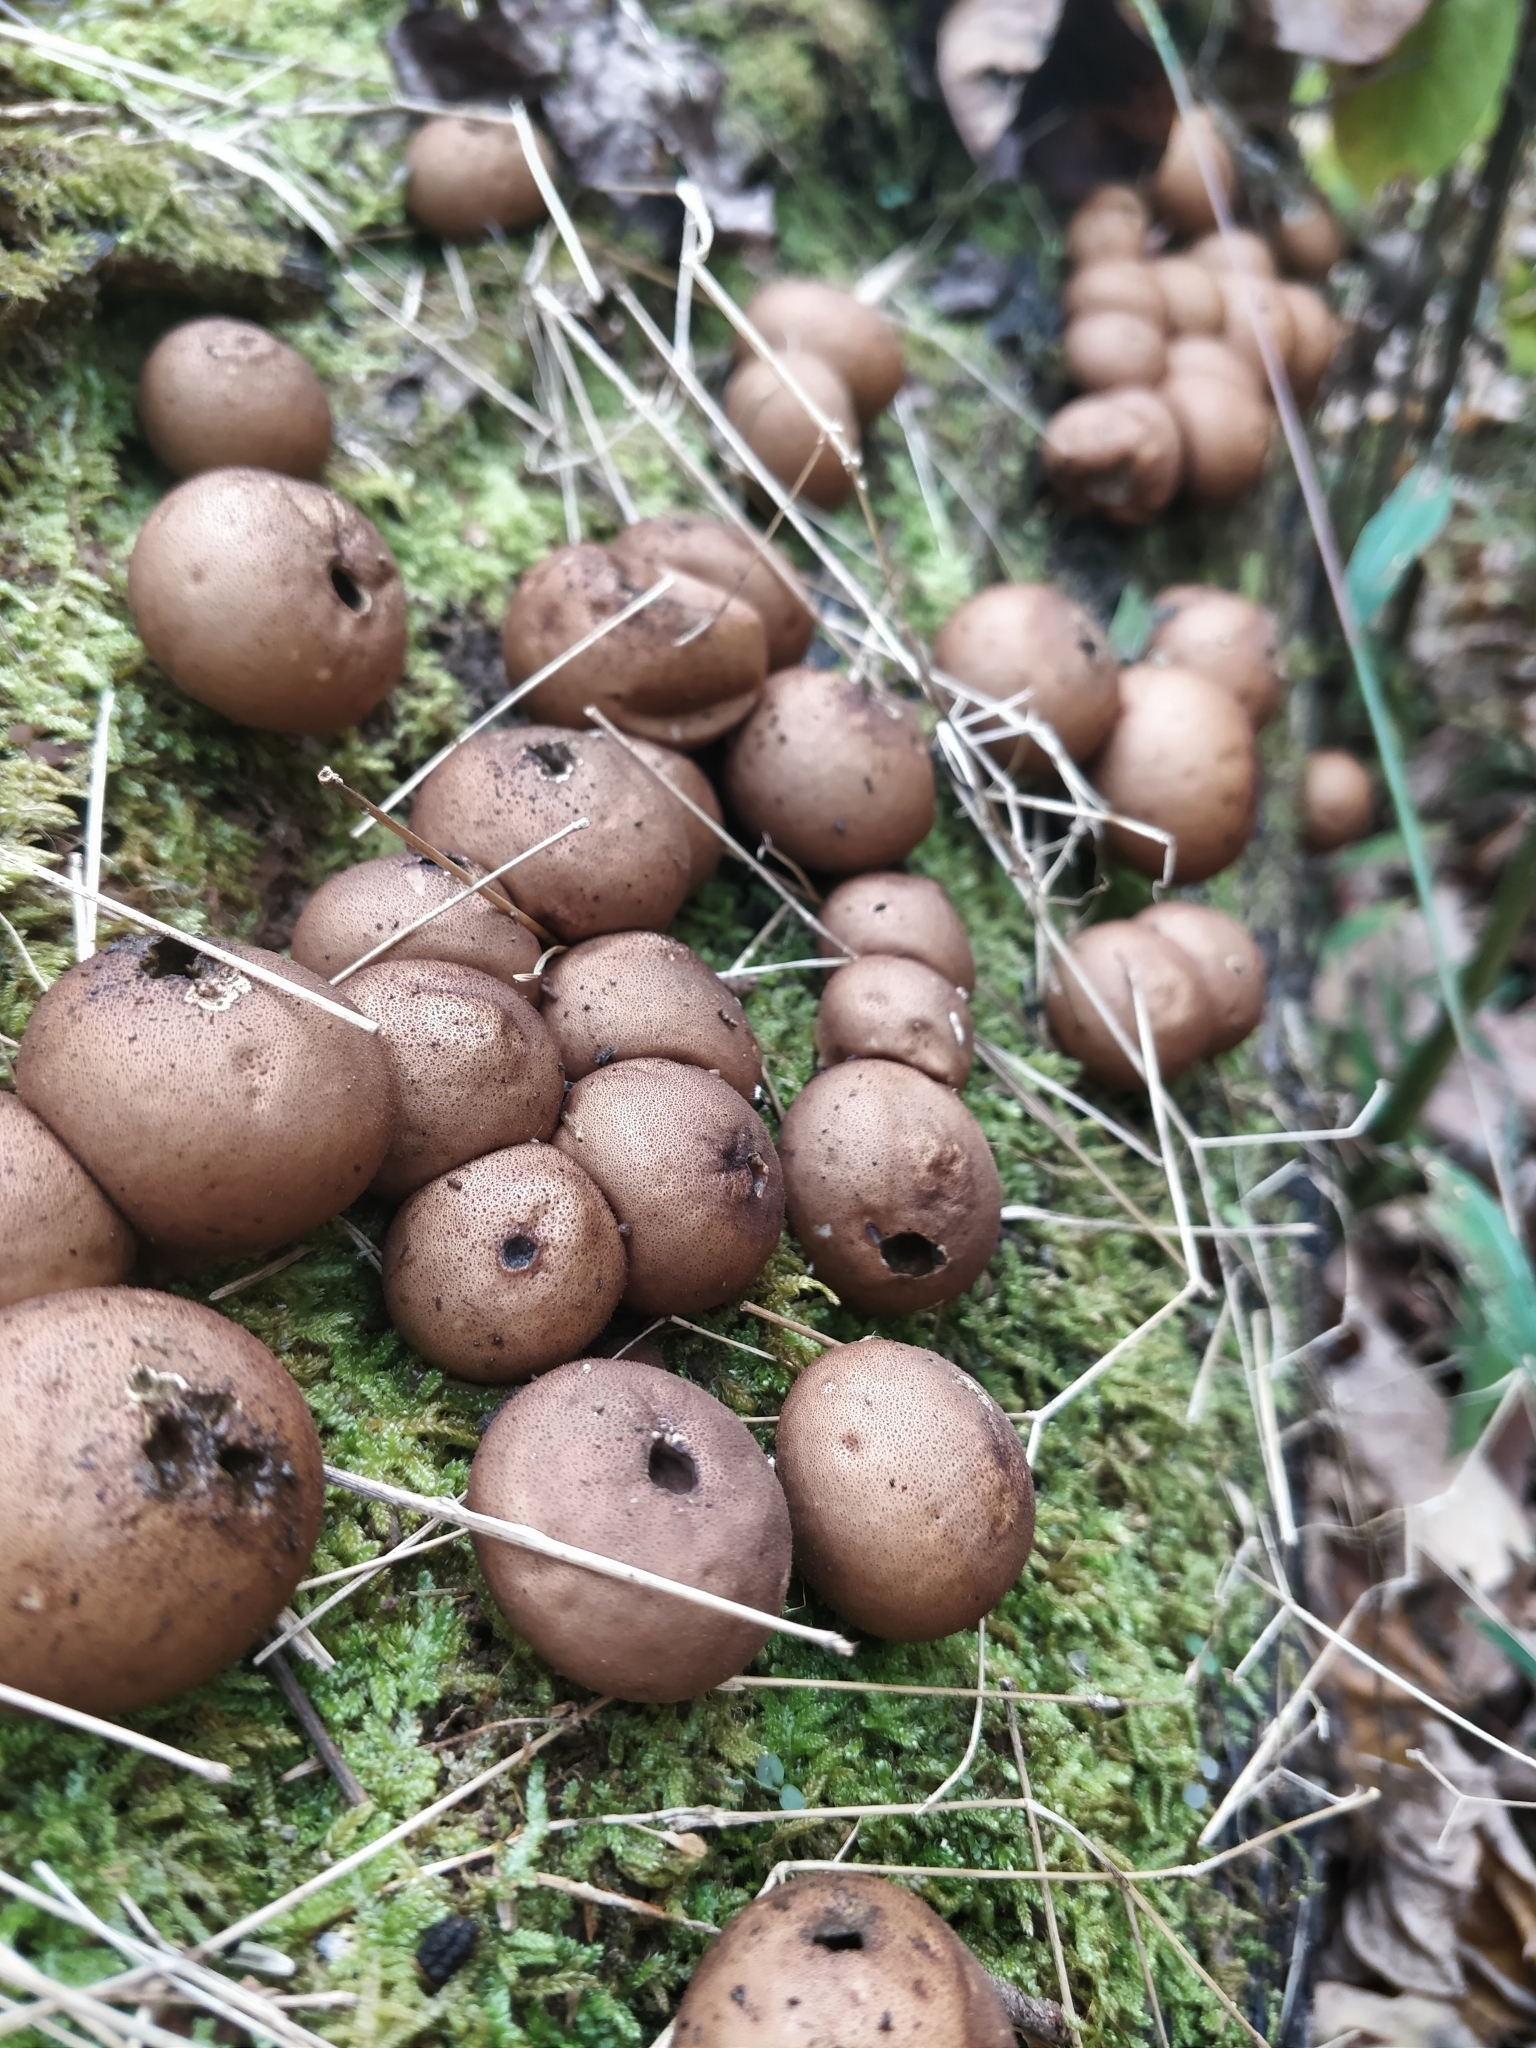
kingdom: Fungi
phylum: Basidiomycota
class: Agaricomycetes
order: Agaricales
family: Lycoperdaceae
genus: Apioperdon
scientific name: Apioperdon pyriforme
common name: Pear-shaped puffball
